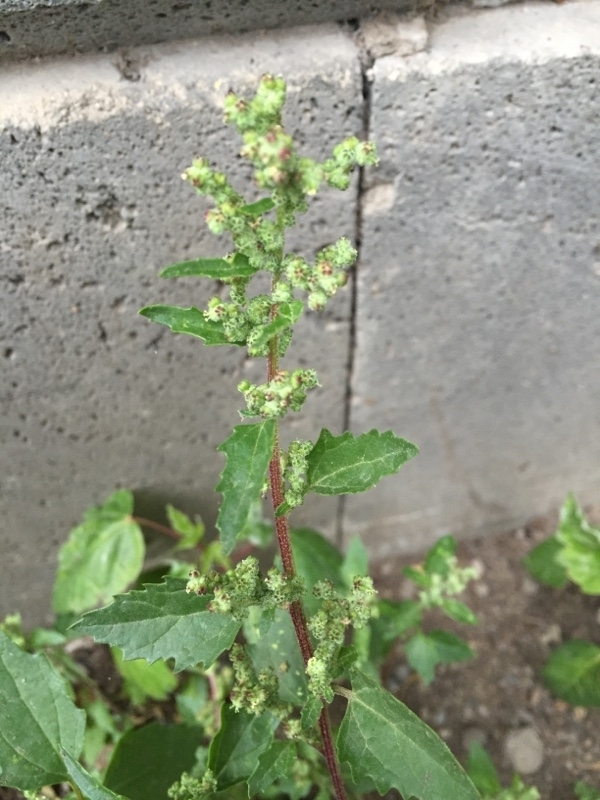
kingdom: Plantae
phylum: Tracheophyta
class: Magnoliopsida
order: Caryophyllales
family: Amaranthaceae
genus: Chenopodiastrum
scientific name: Chenopodiastrum murale
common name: Sowbane
